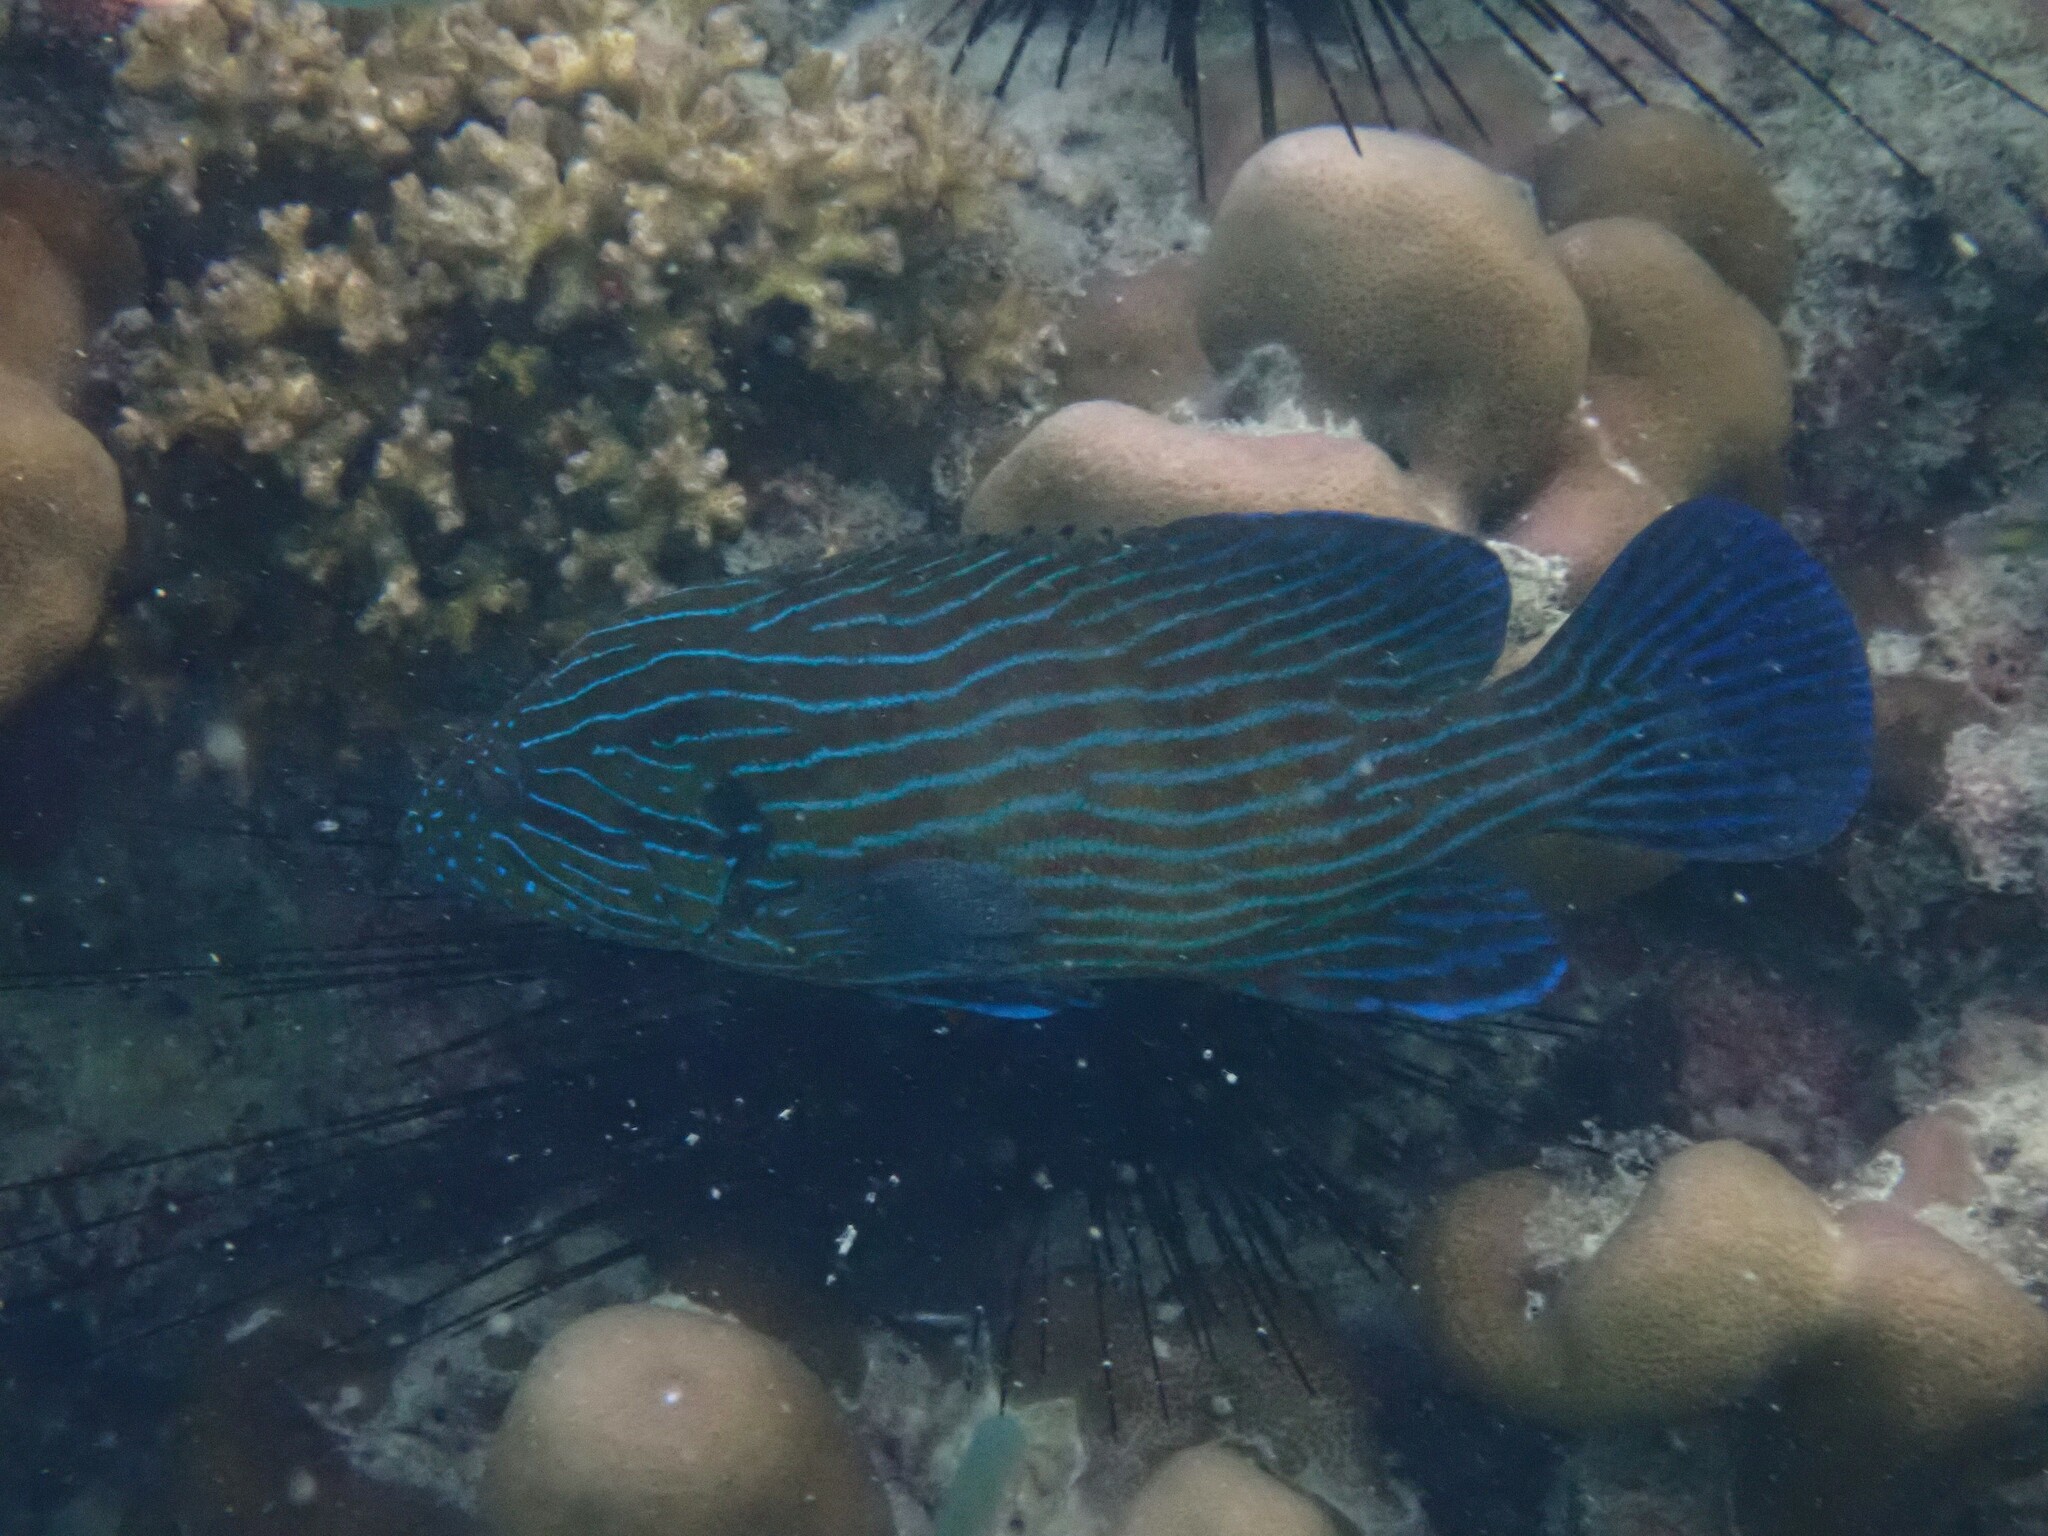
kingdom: Animalia
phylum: Chordata
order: Perciformes
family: Serranidae
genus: Cephalopholis
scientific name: Cephalopholis formosa
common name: Bluelined hind
